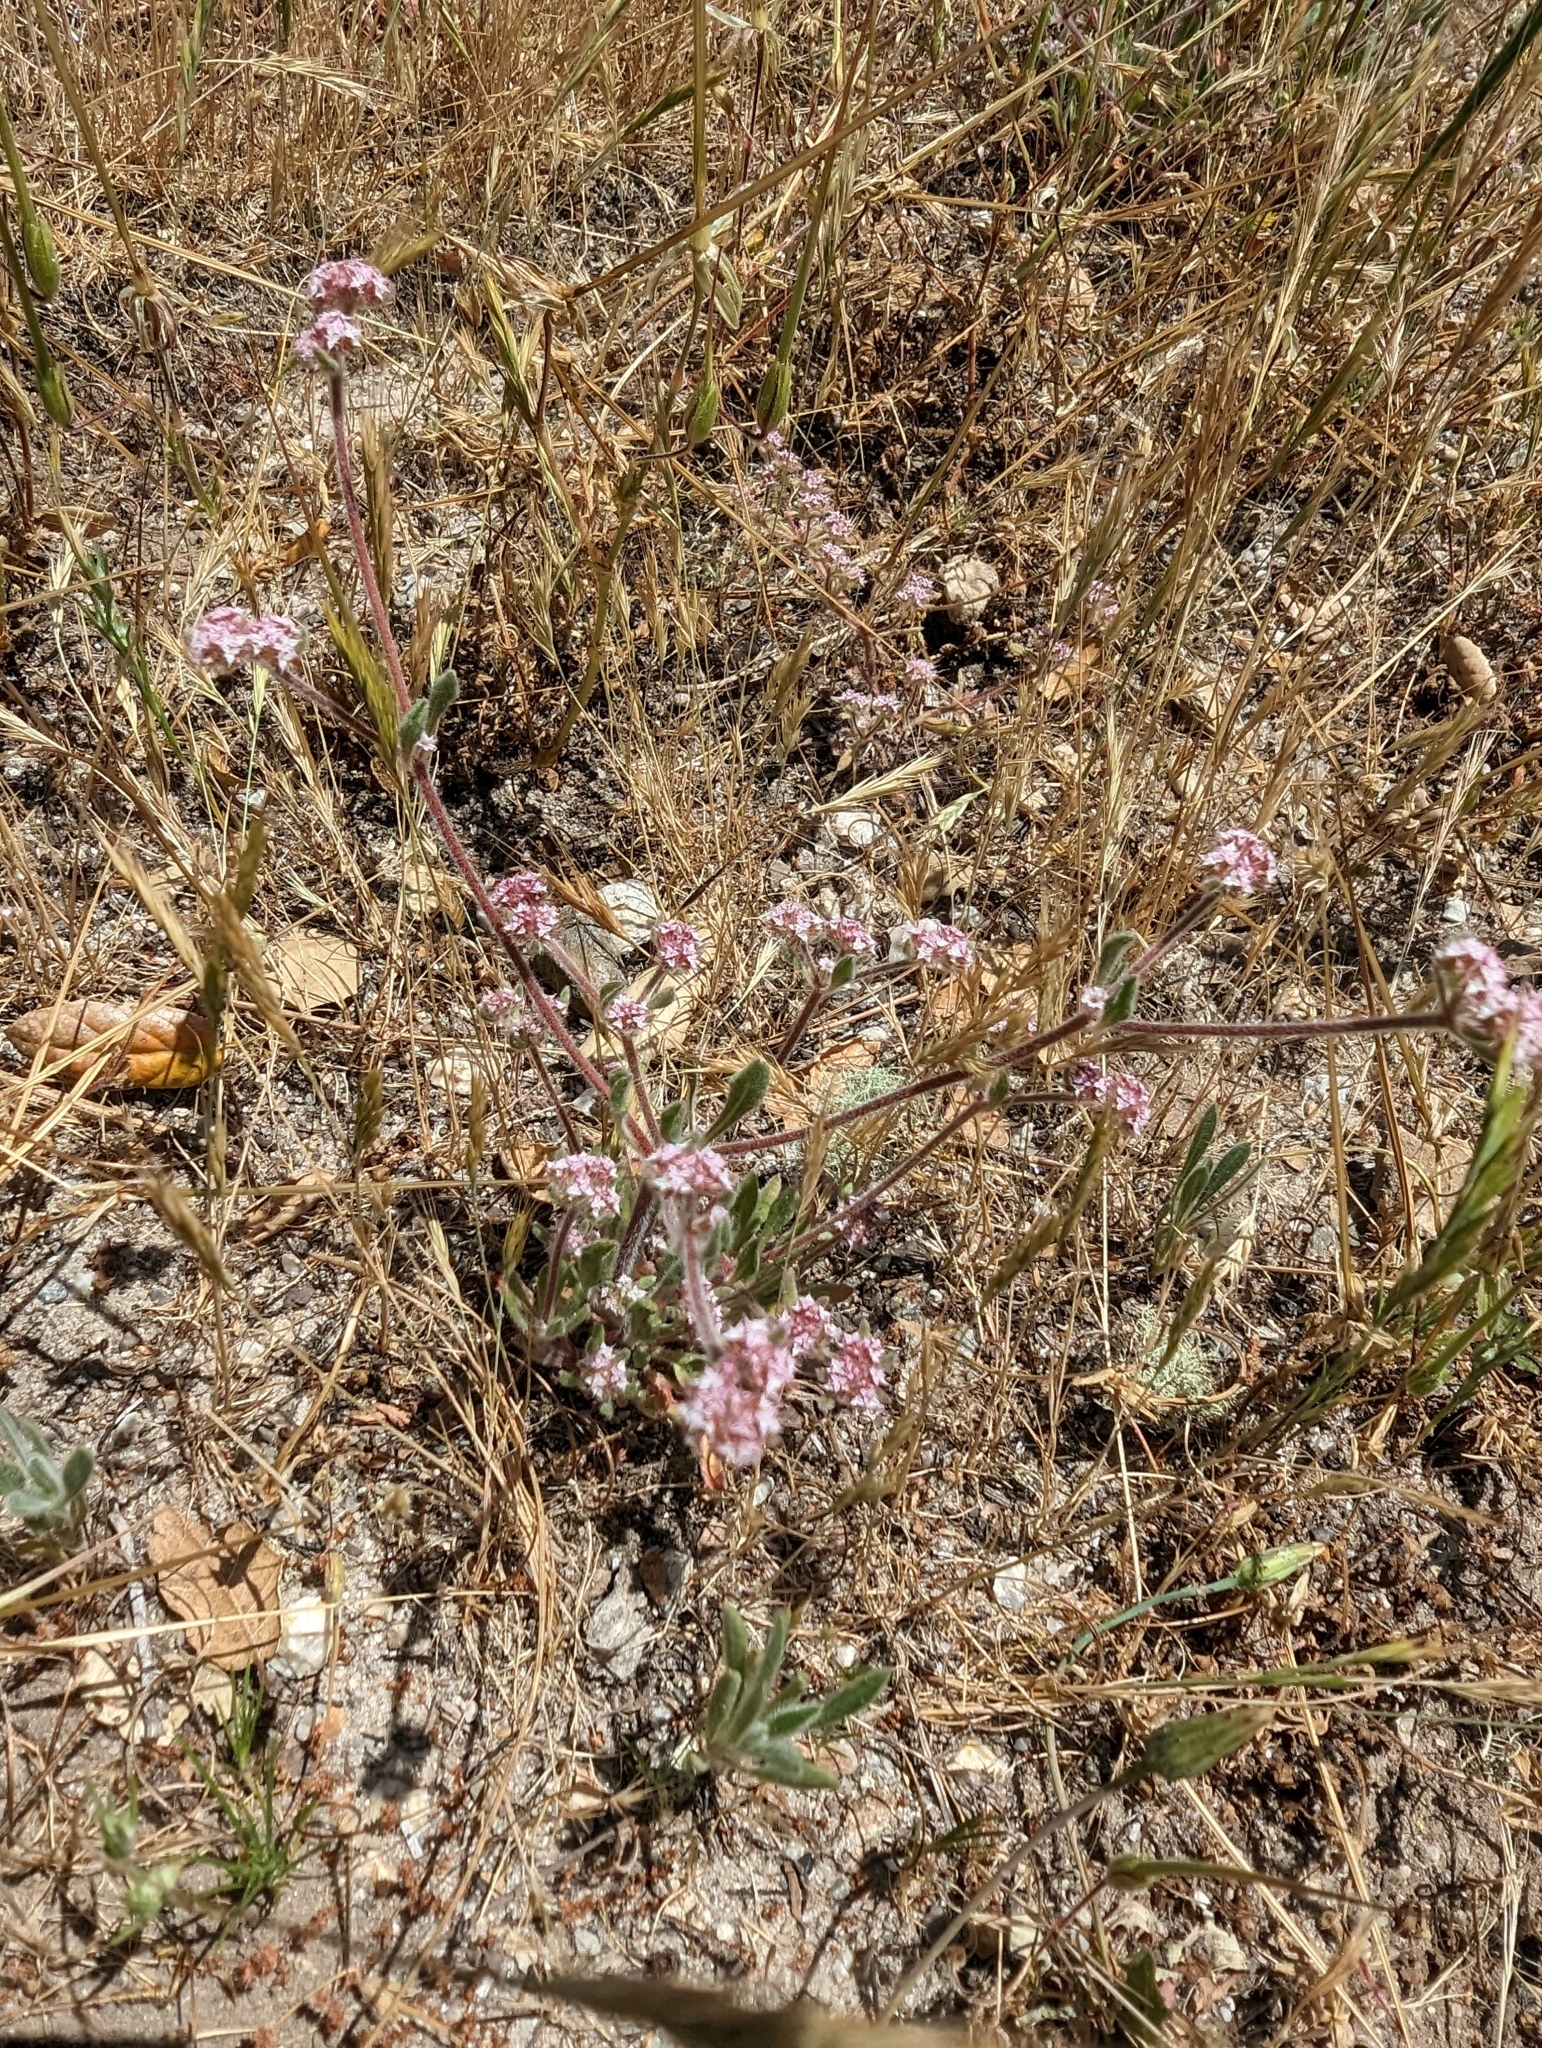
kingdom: Plantae
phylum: Tracheophyta
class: Magnoliopsida
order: Caryophyllales
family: Polygonaceae
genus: Chorizanthe
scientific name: Chorizanthe pungens
